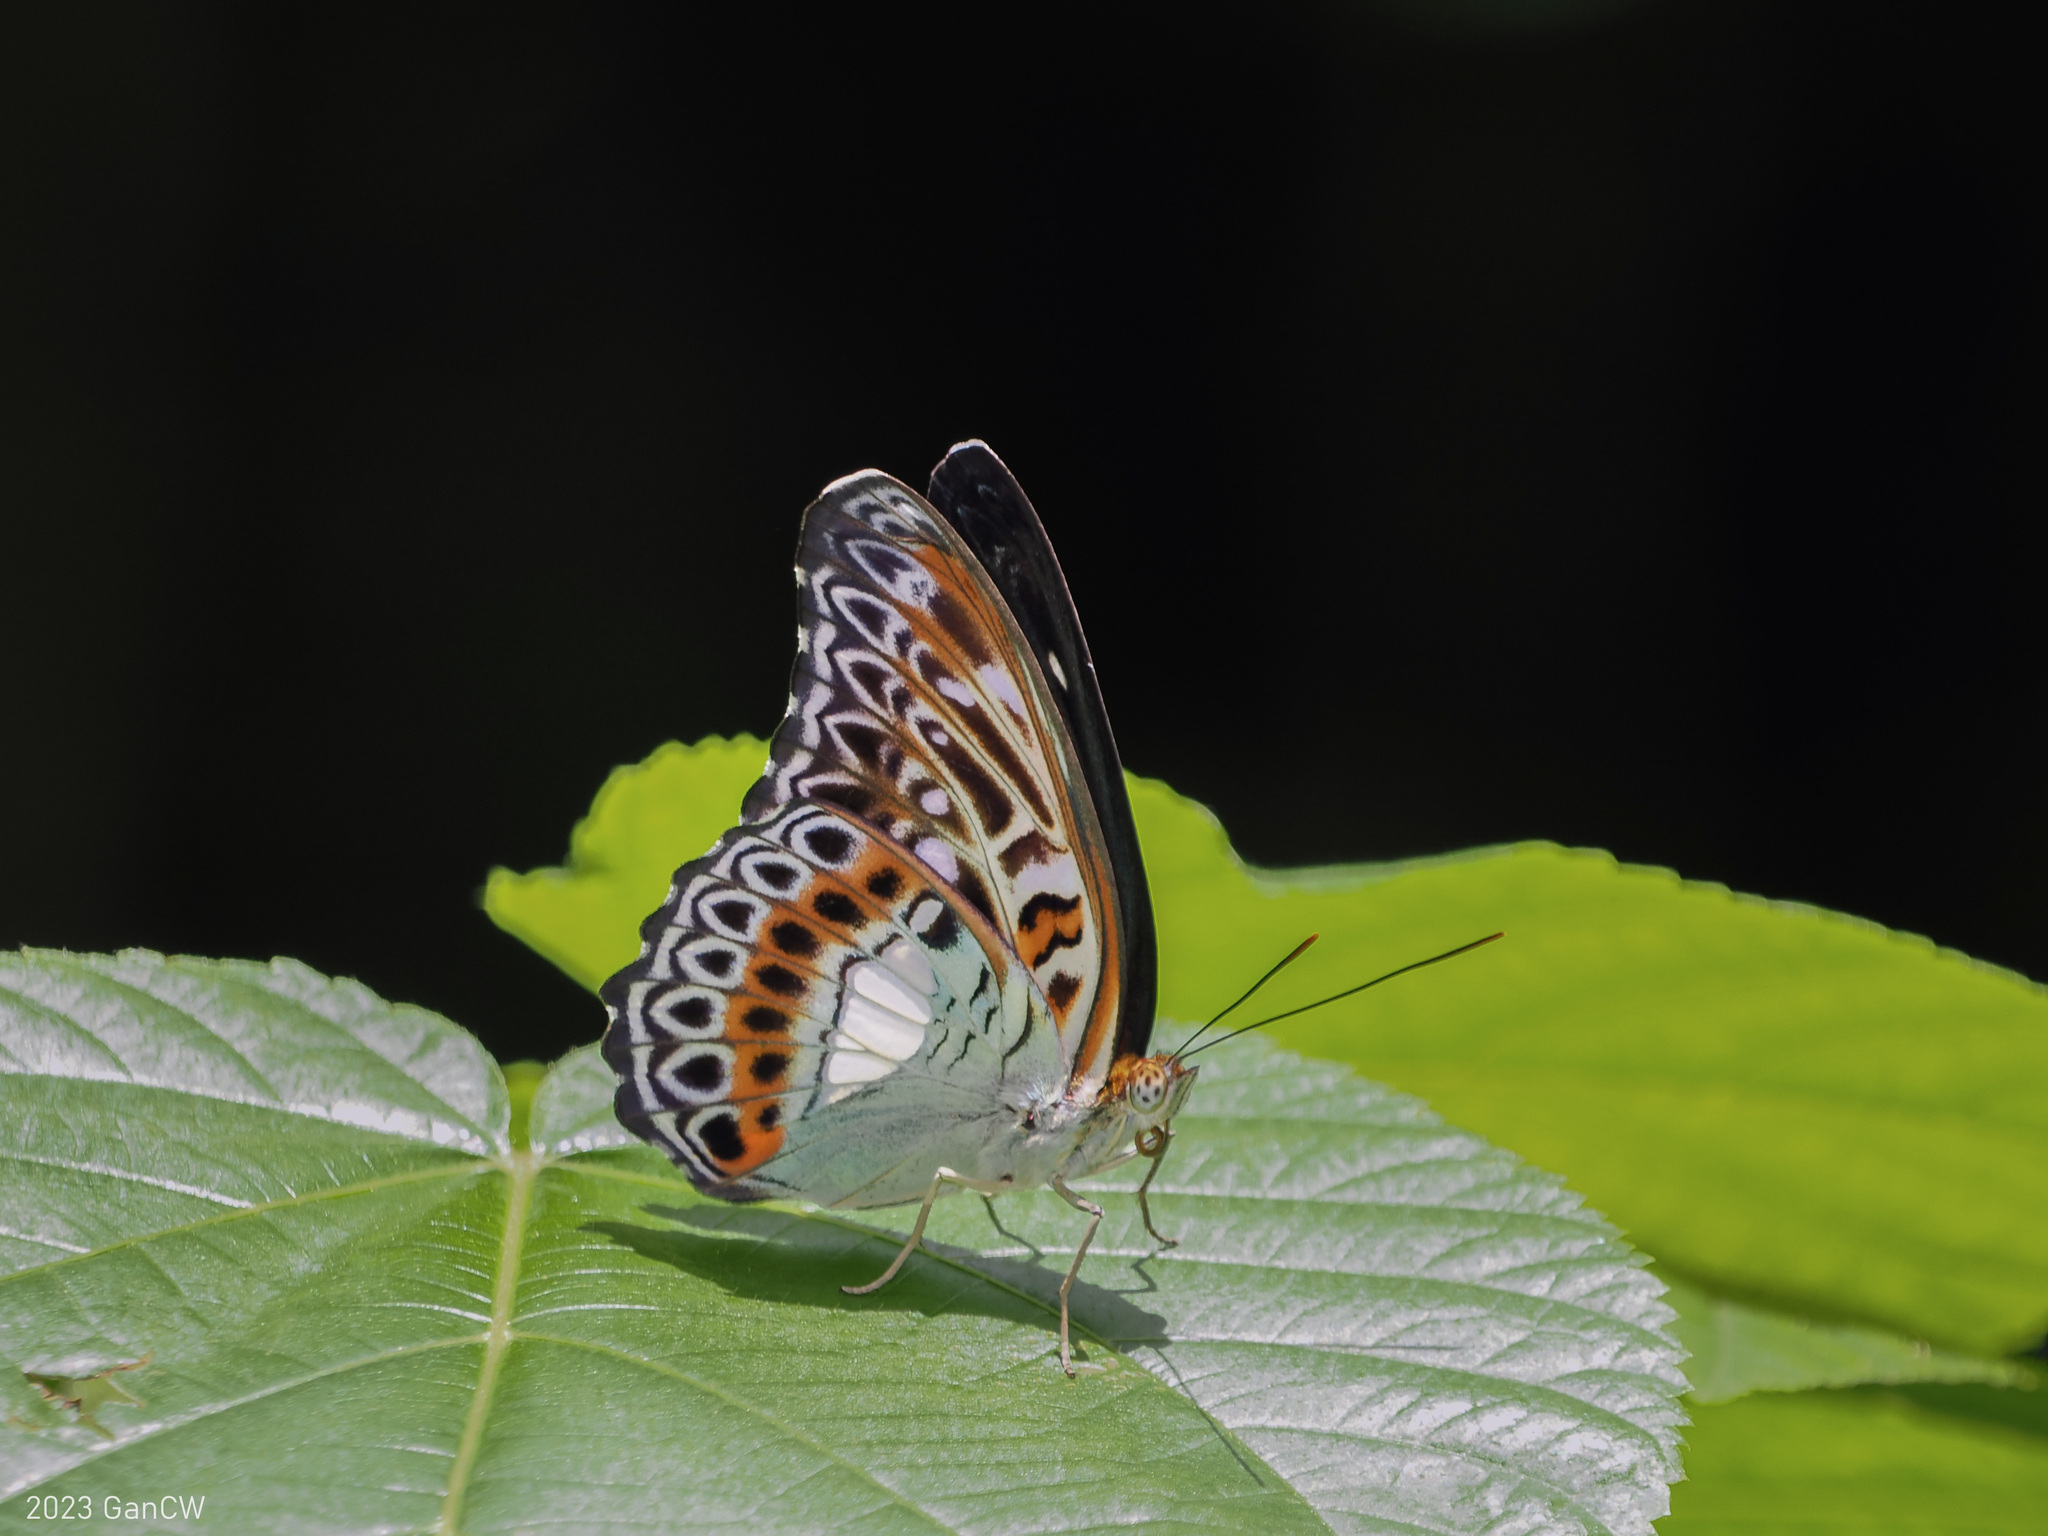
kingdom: Animalia
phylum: Arthropoda
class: Insecta
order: Lepidoptera
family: Nymphalidae
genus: Limenitis
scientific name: Limenitis
